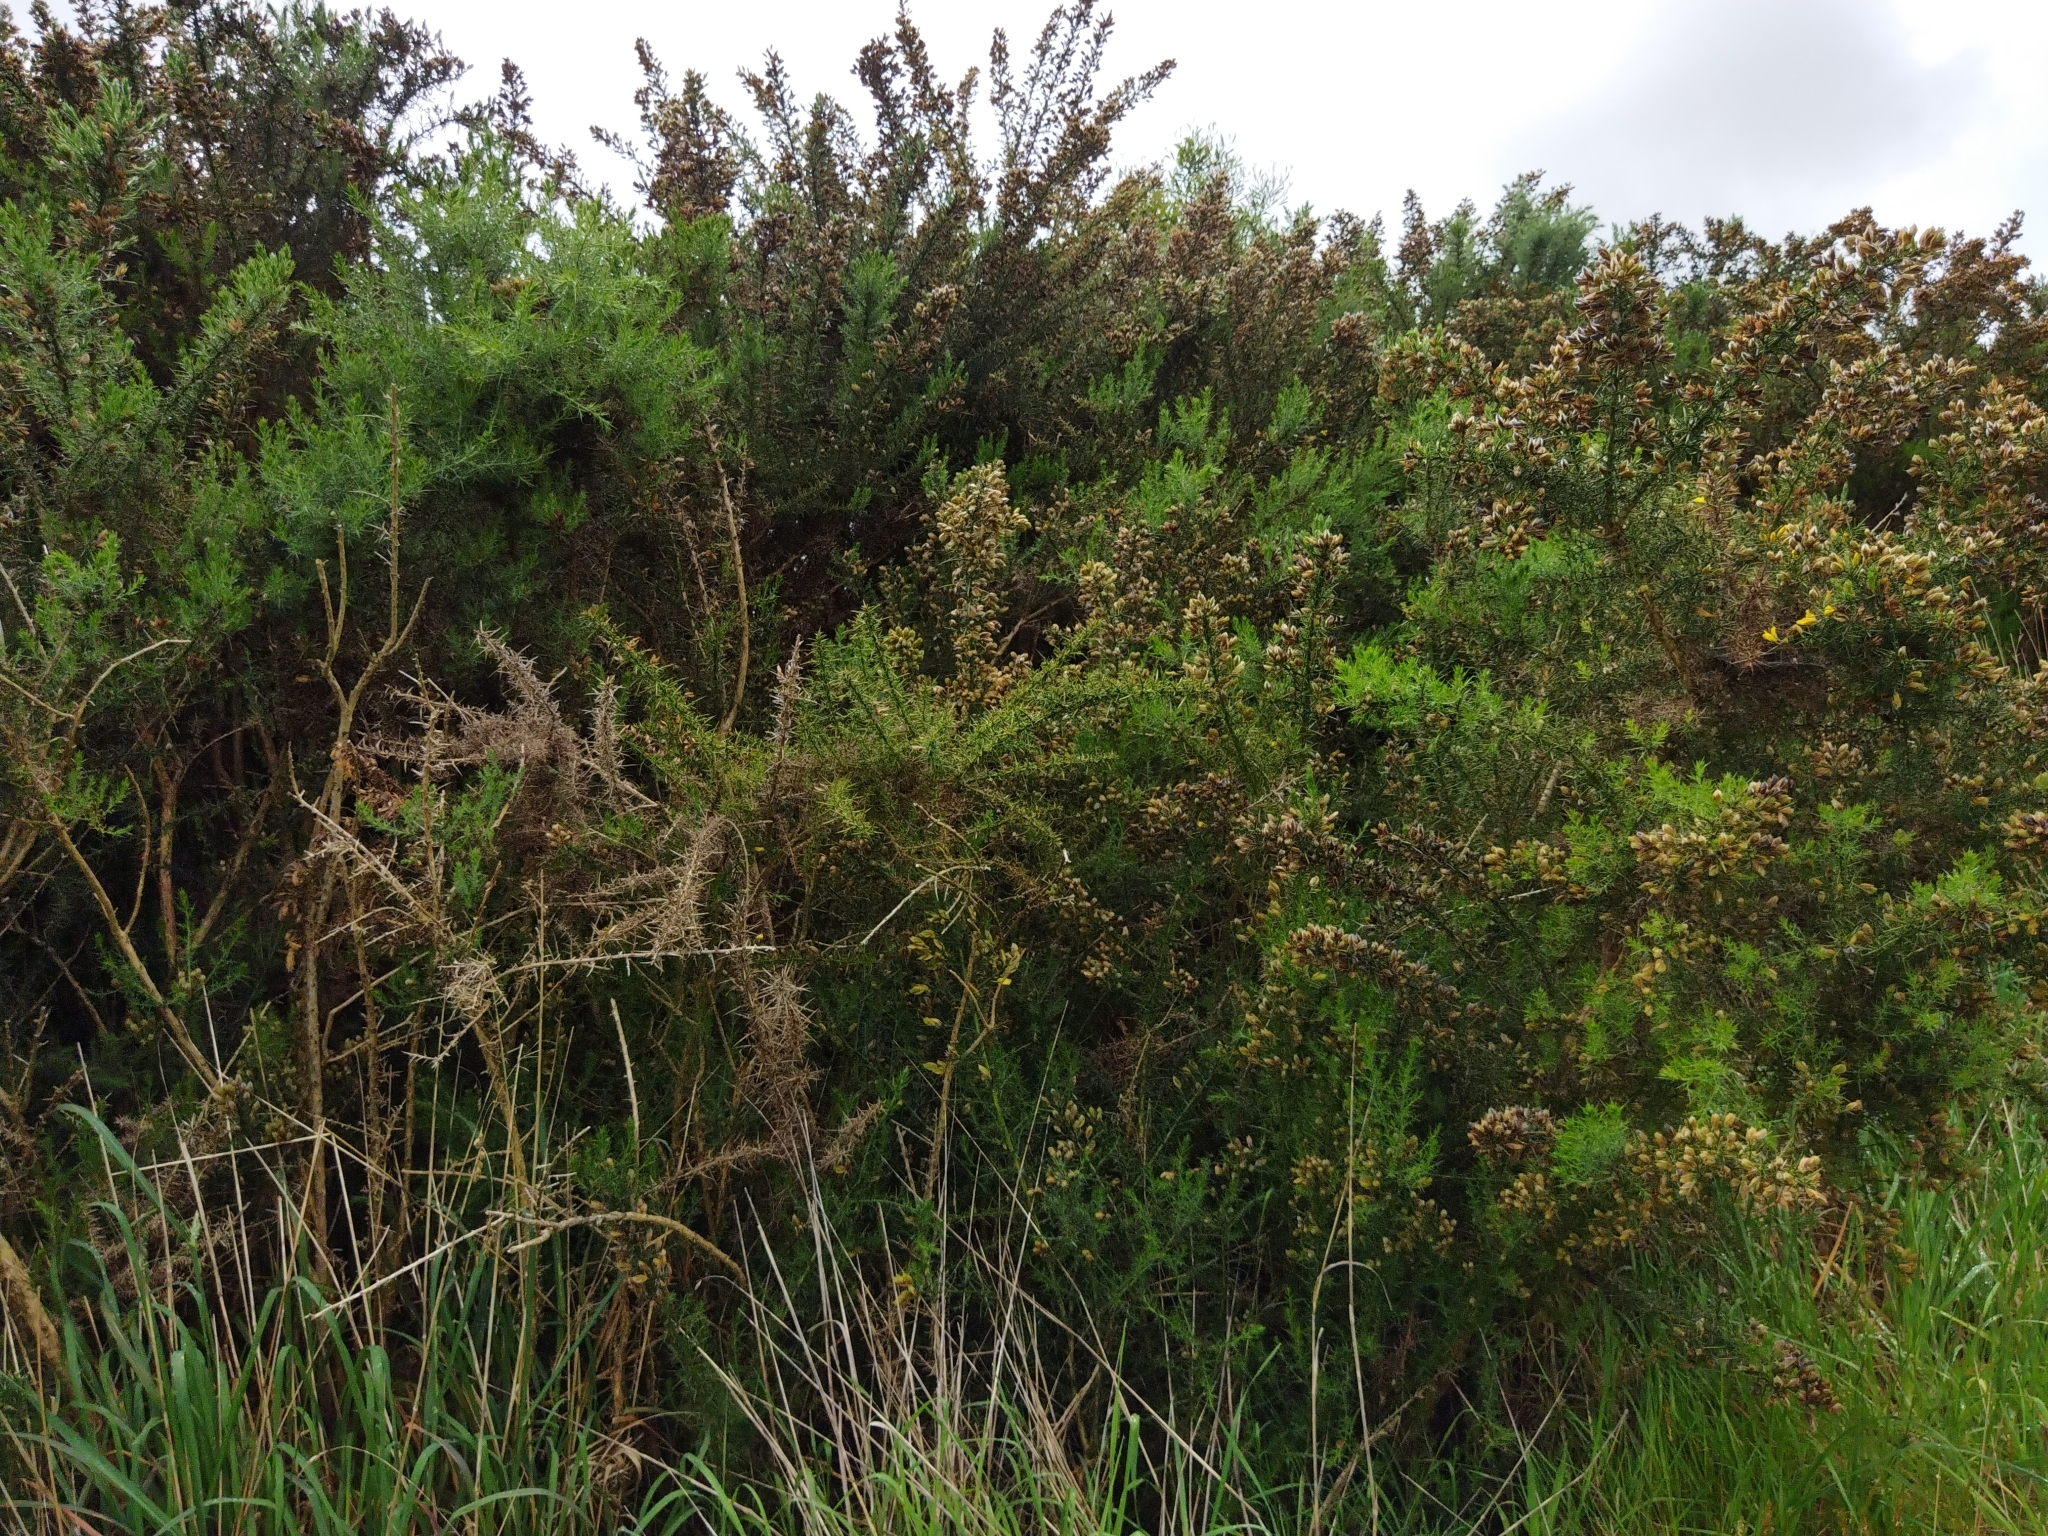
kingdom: Plantae
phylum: Tracheophyta
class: Magnoliopsida
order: Fabales
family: Fabaceae
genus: Ulex
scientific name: Ulex europaeus
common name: Common gorse
